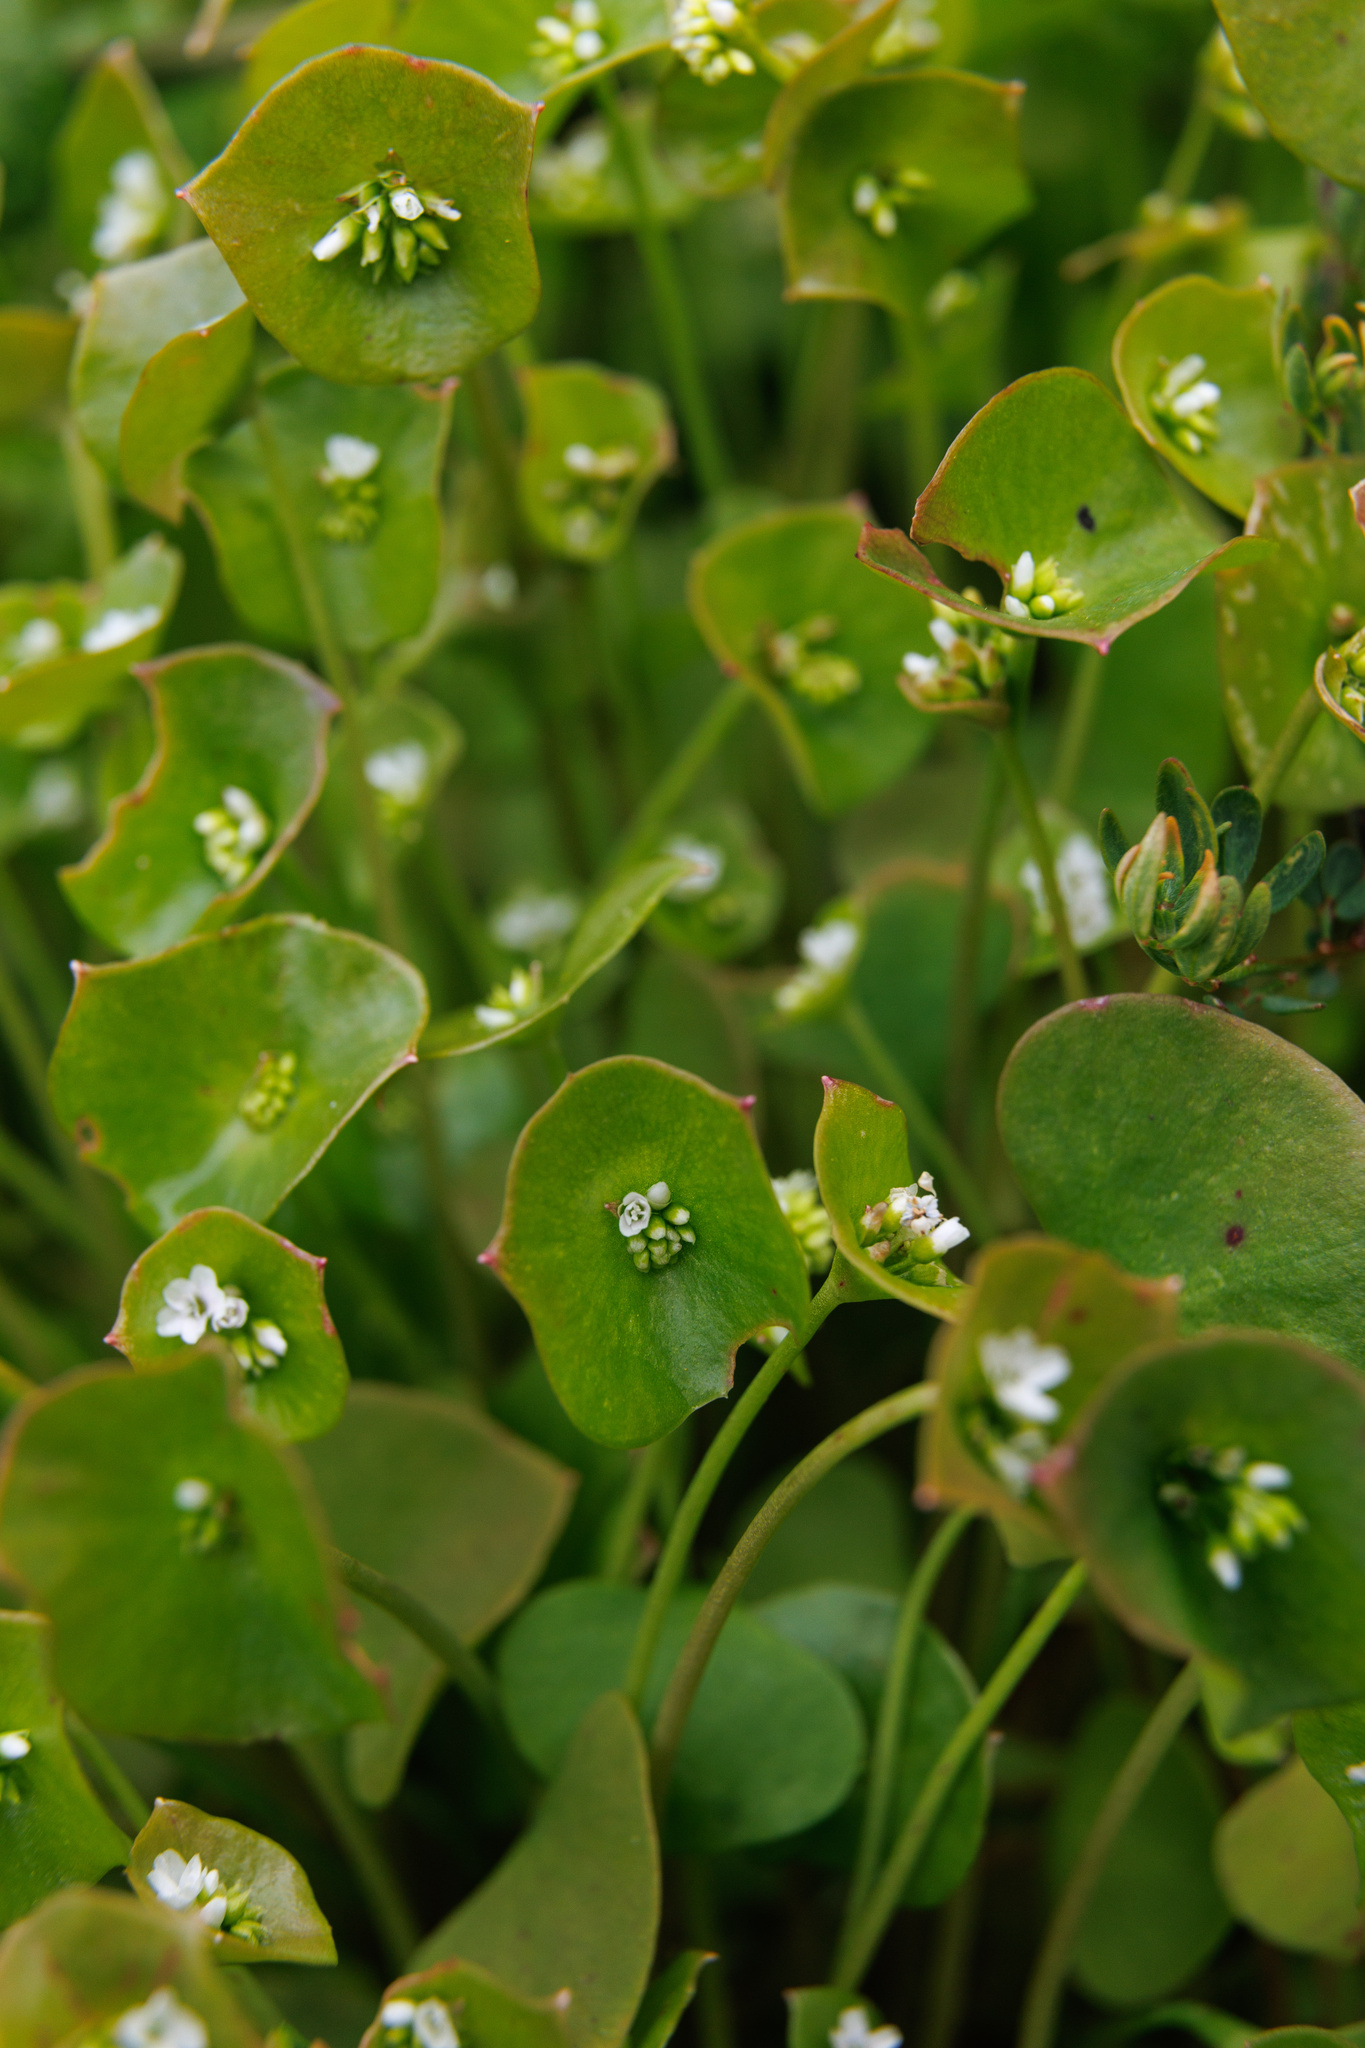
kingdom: Plantae
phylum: Tracheophyta
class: Magnoliopsida
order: Caryophyllales
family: Montiaceae
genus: Claytonia
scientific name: Claytonia perfoliata
